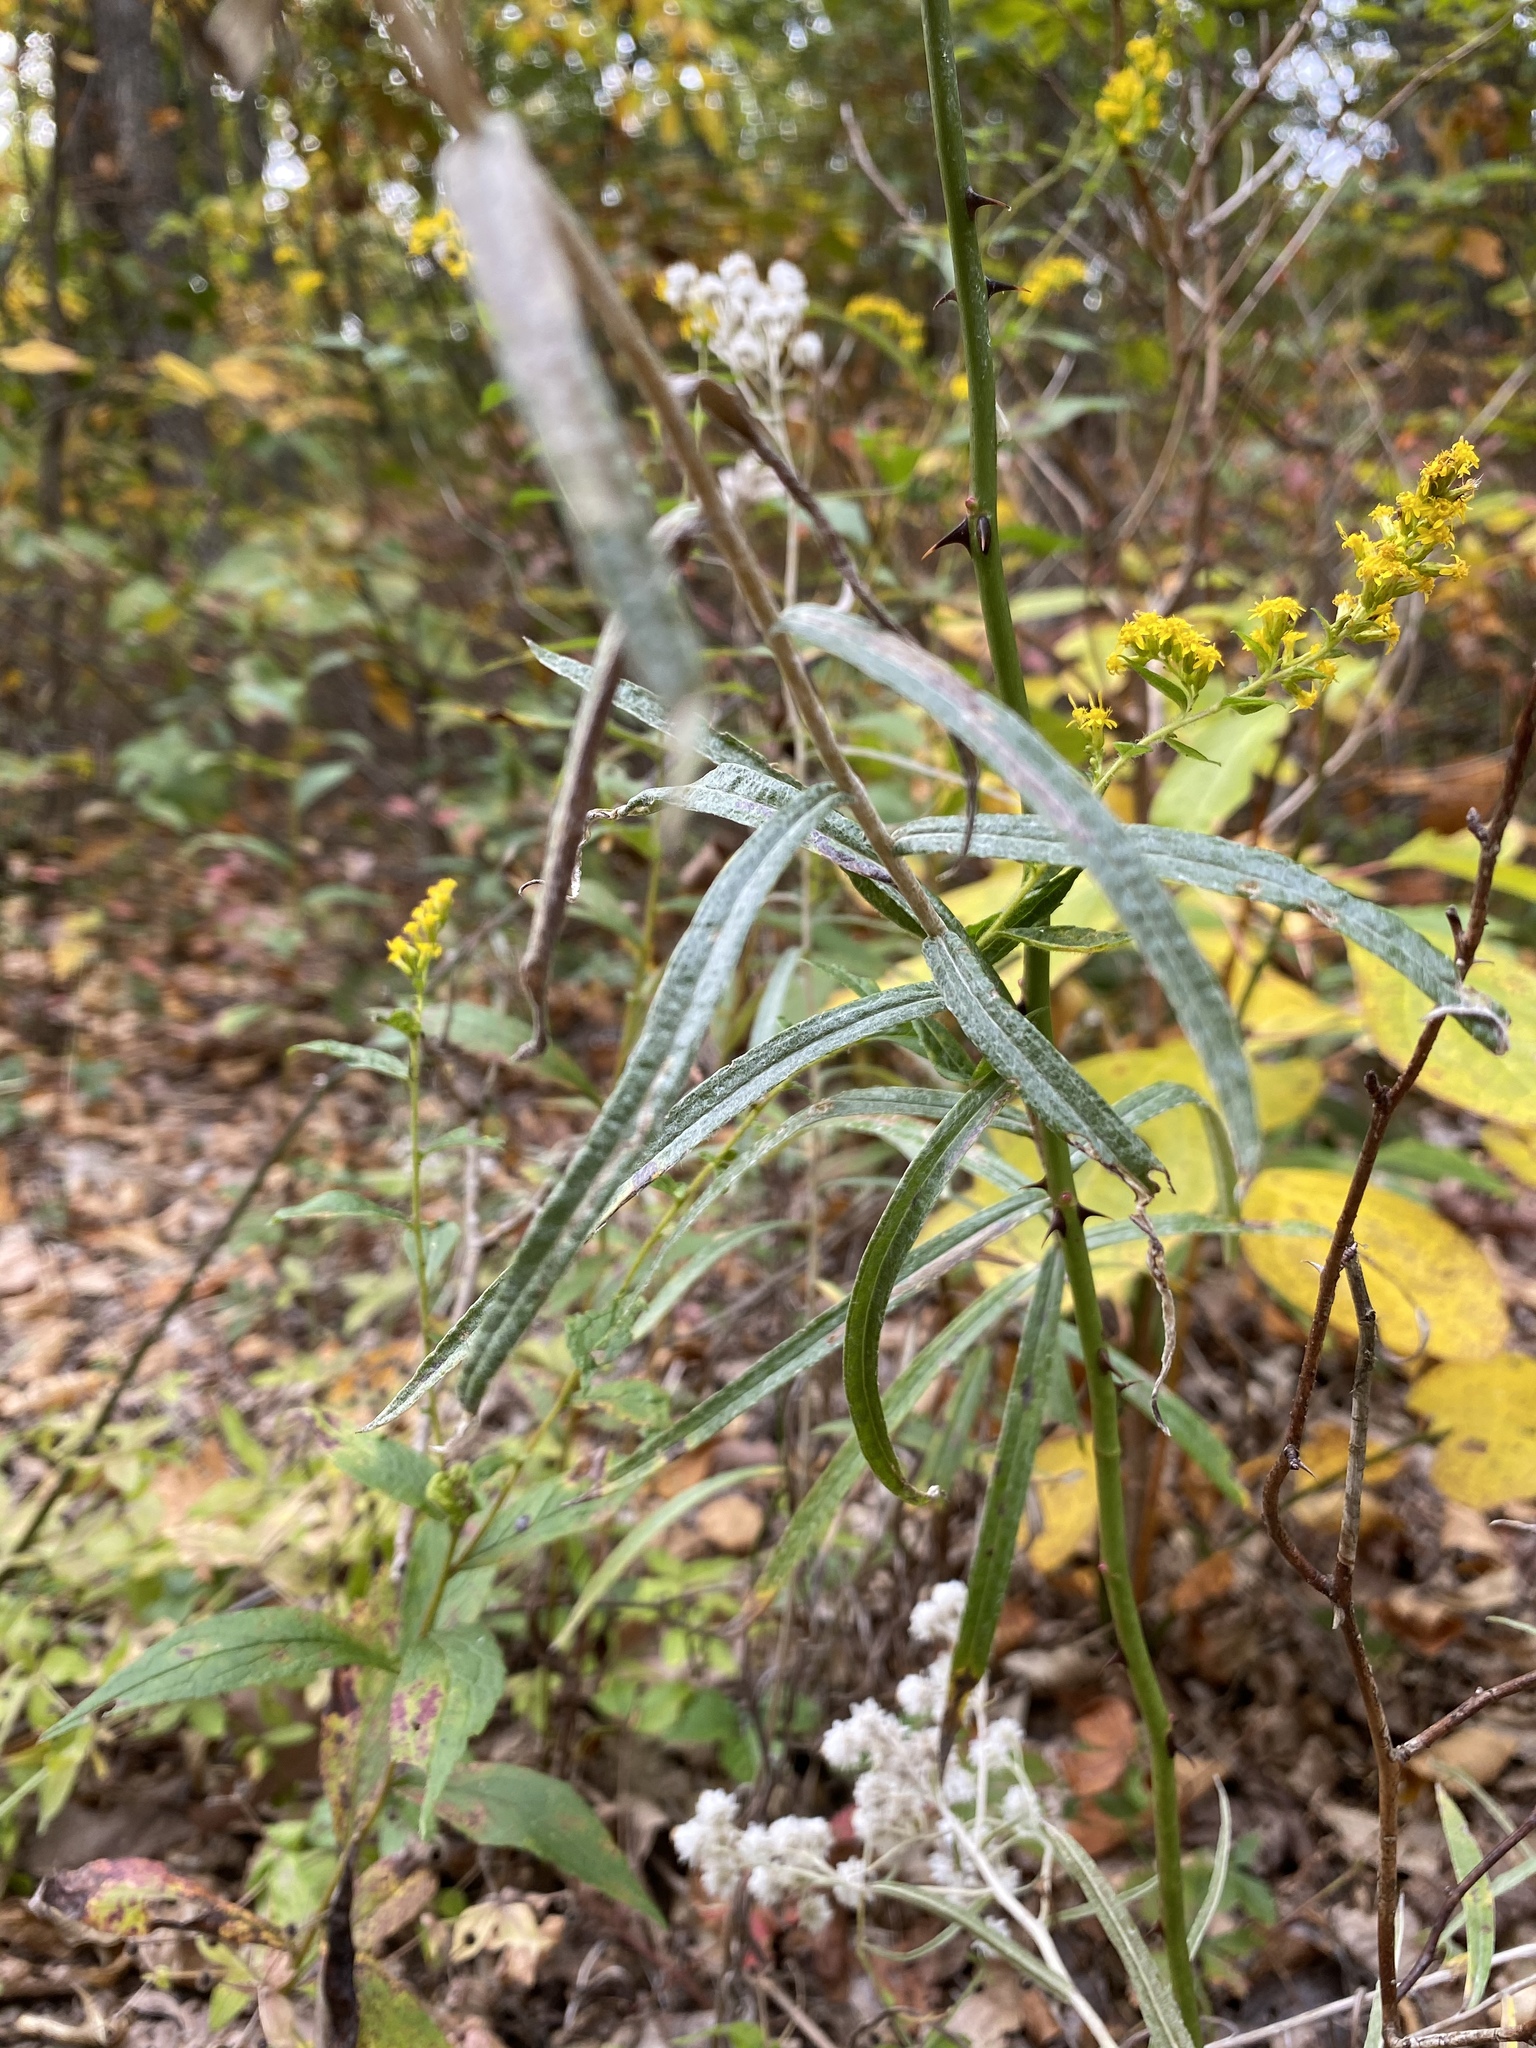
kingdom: Plantae
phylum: Tracheophyta
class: Magnoliopsida
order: Asterales
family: Asteraceae
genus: Anaphalis
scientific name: Anaphalis margaritacea
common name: Pearly everlasting
